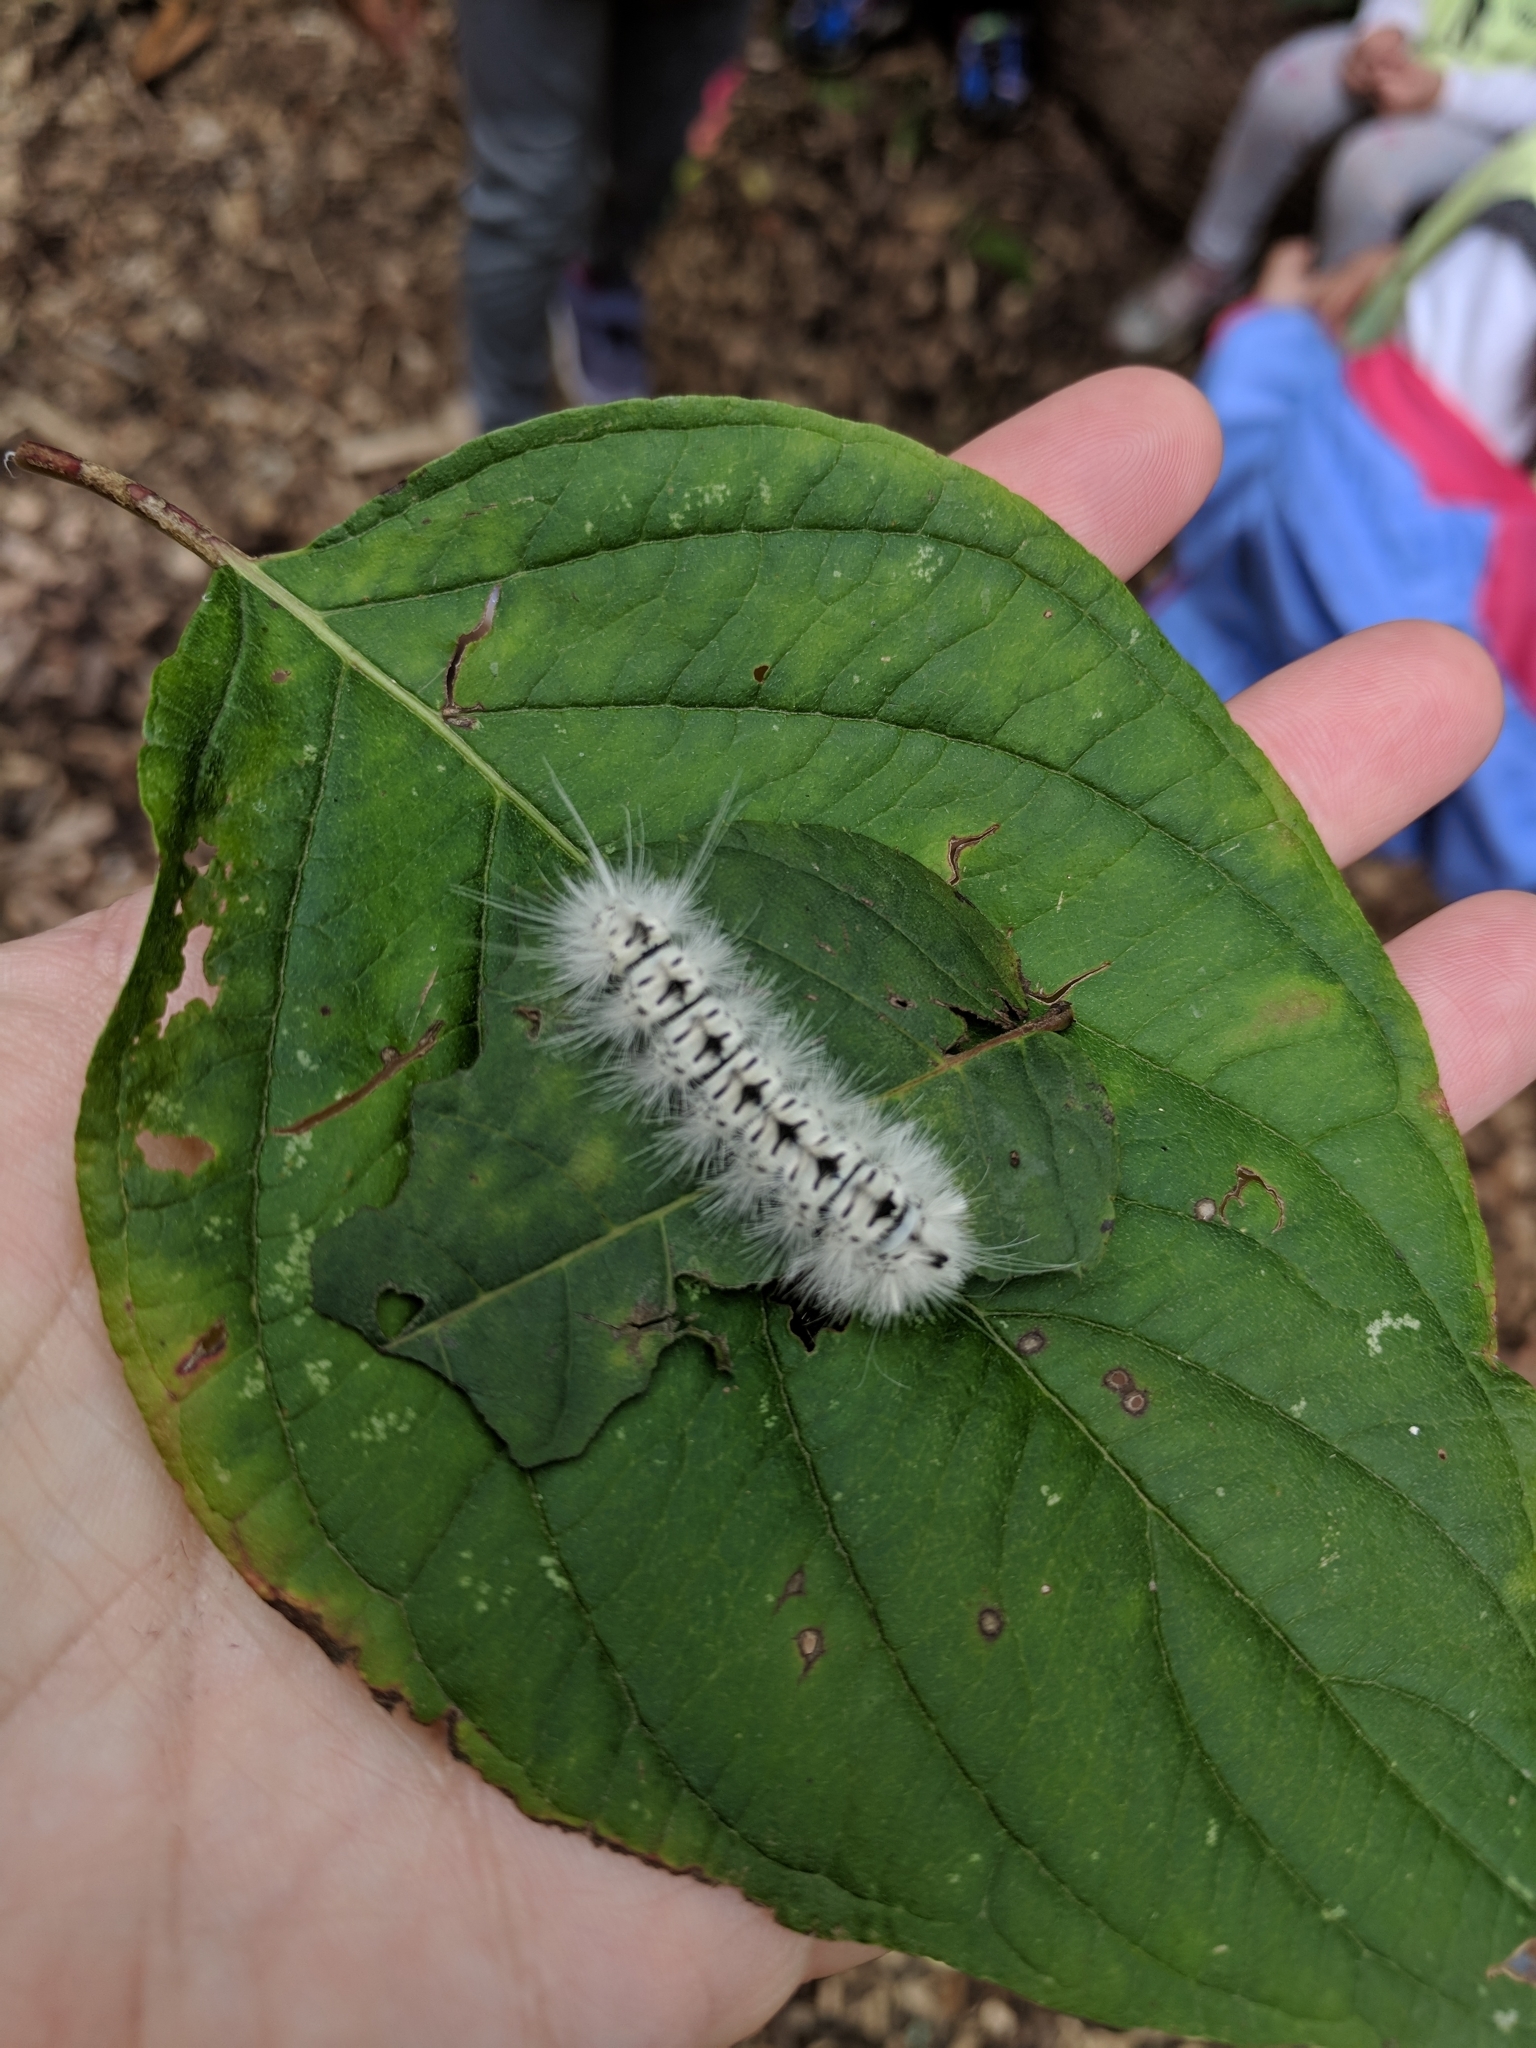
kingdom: Animalia
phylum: Arthropoda
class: Insecta
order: Lepidoptera
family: Erebidae
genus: Lophocampa
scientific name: Lophocampa caryae
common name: Hickory tussock moth
